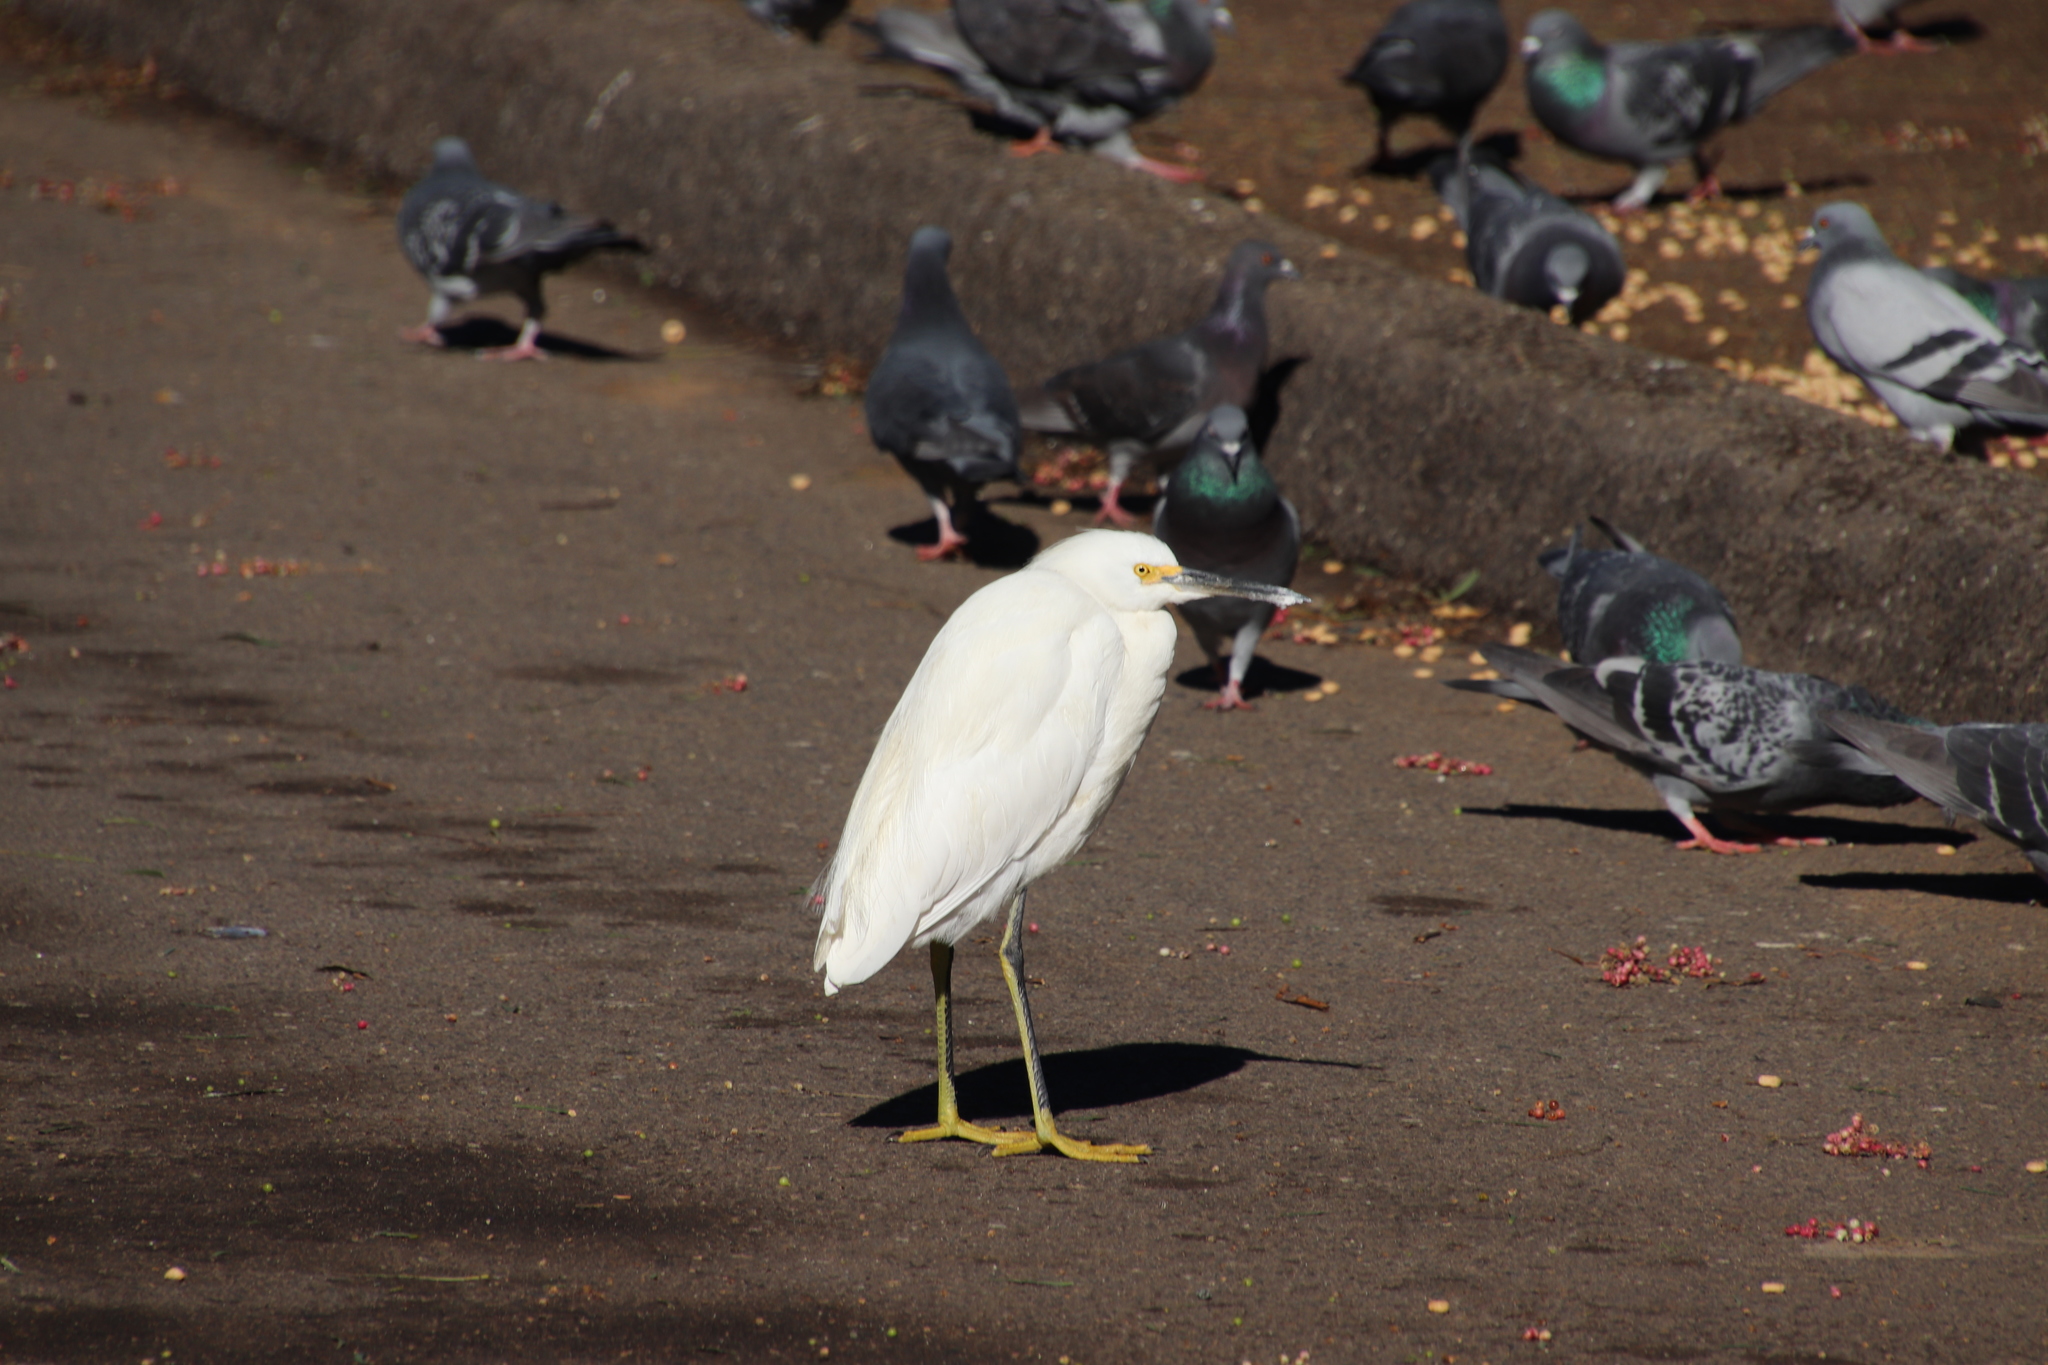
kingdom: Animalia
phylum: Chordata
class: Aves
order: Pelecaniformes
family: Ardeidae
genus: Egretta
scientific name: Egretta thula
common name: Snowy egret
